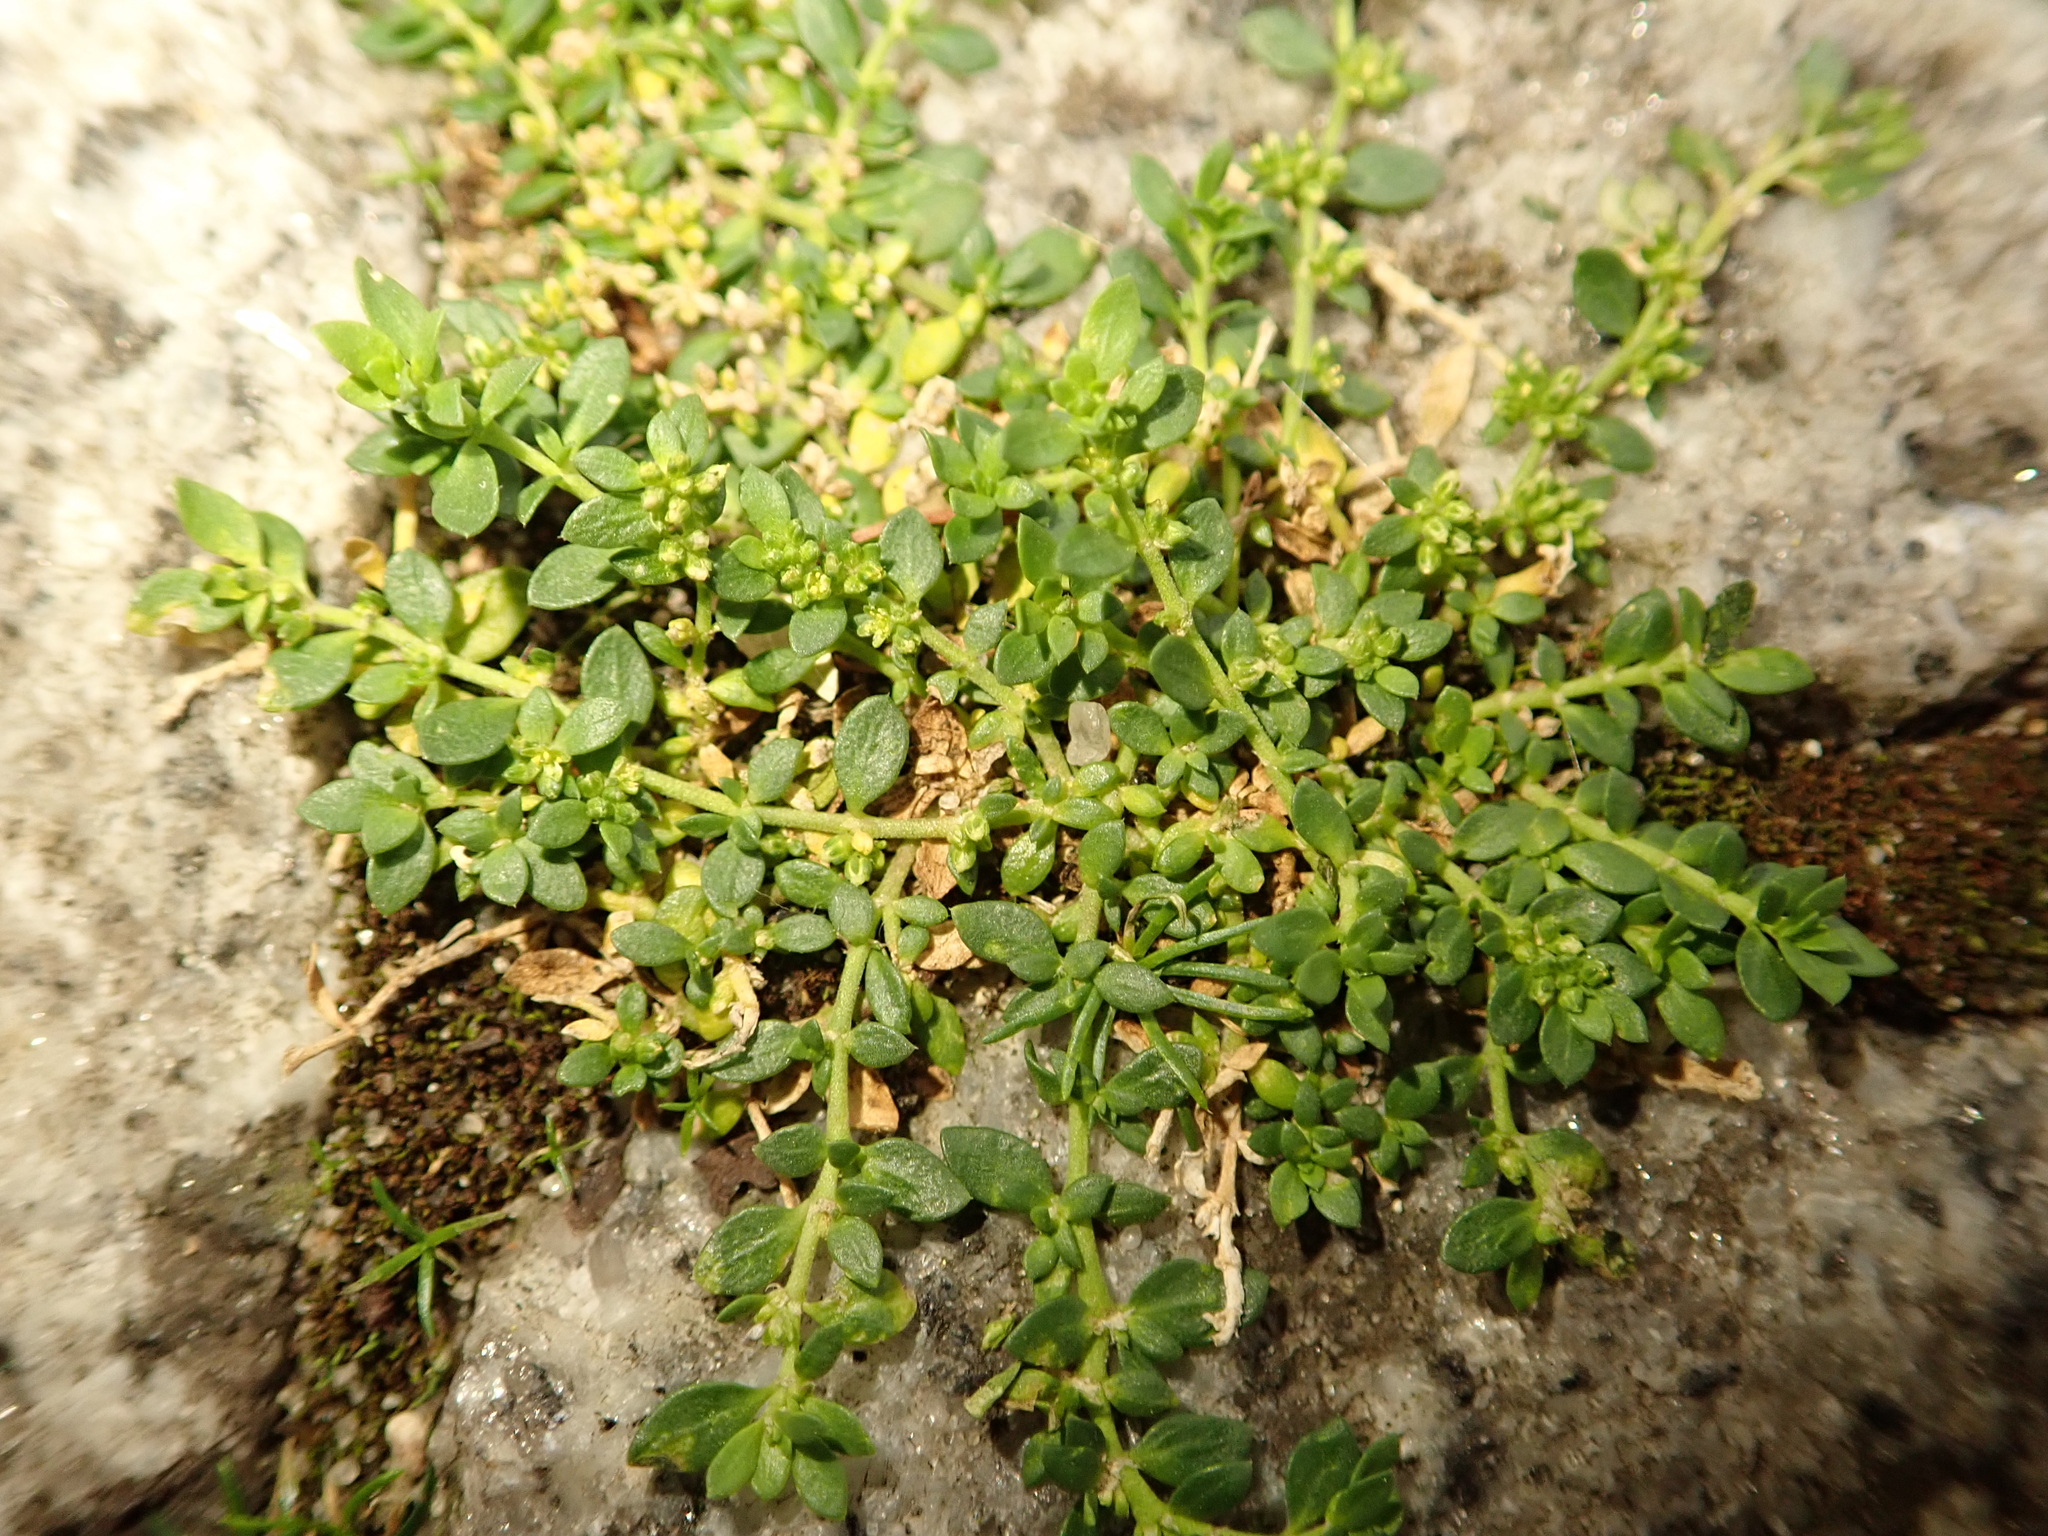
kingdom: Plantae
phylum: Tracheophyta
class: Magnoliopsida
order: Caryophyllales
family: Caryophyllaceae
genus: Herniaria
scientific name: Herniaria glabra
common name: Smooth rupturewort
